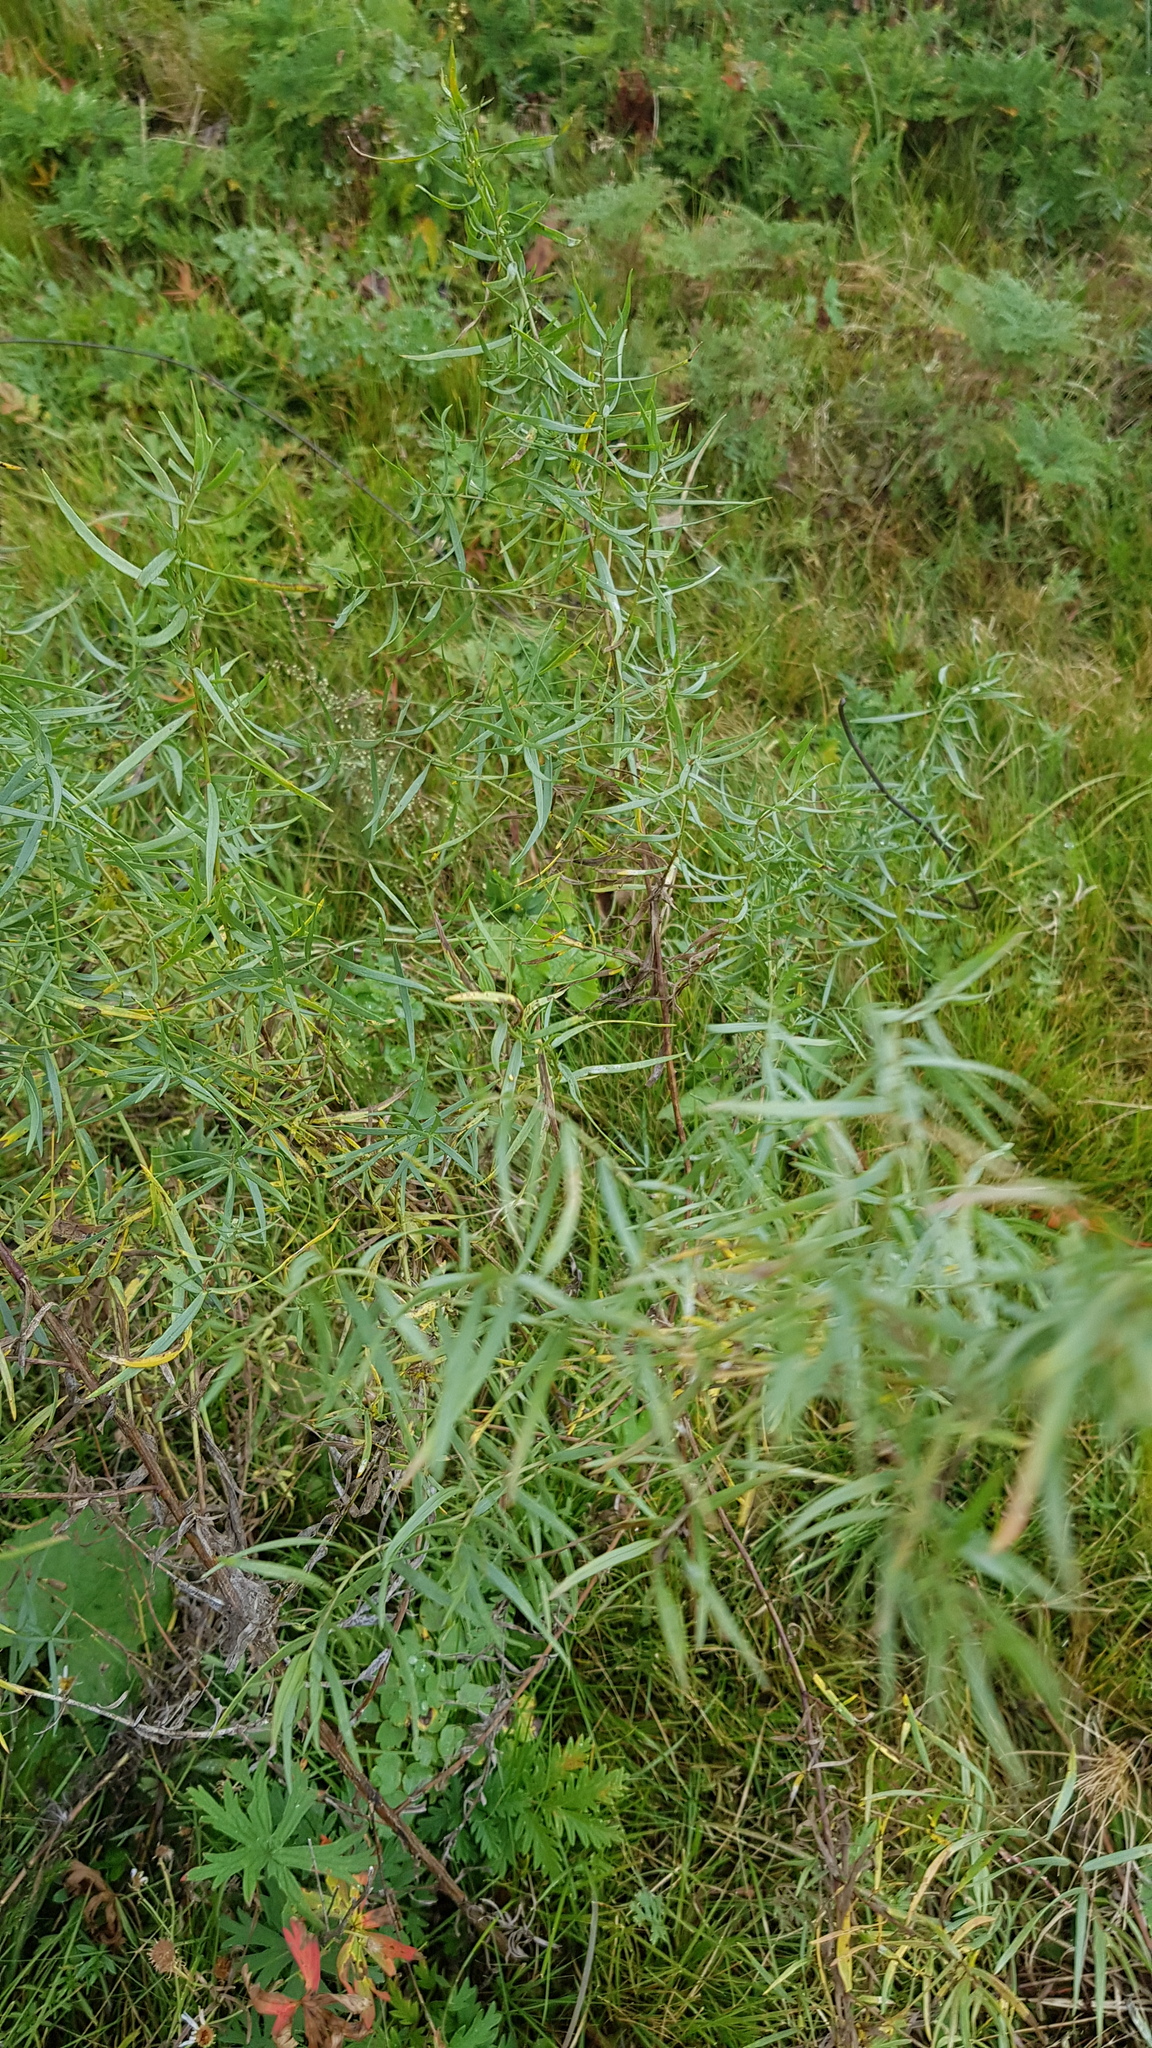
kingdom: Plantae
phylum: Tracheophyta
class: Magnoliopsida
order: Asterales
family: Asteraceae
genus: Artemisia
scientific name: Artemisia dracunculus
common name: Tarragon
